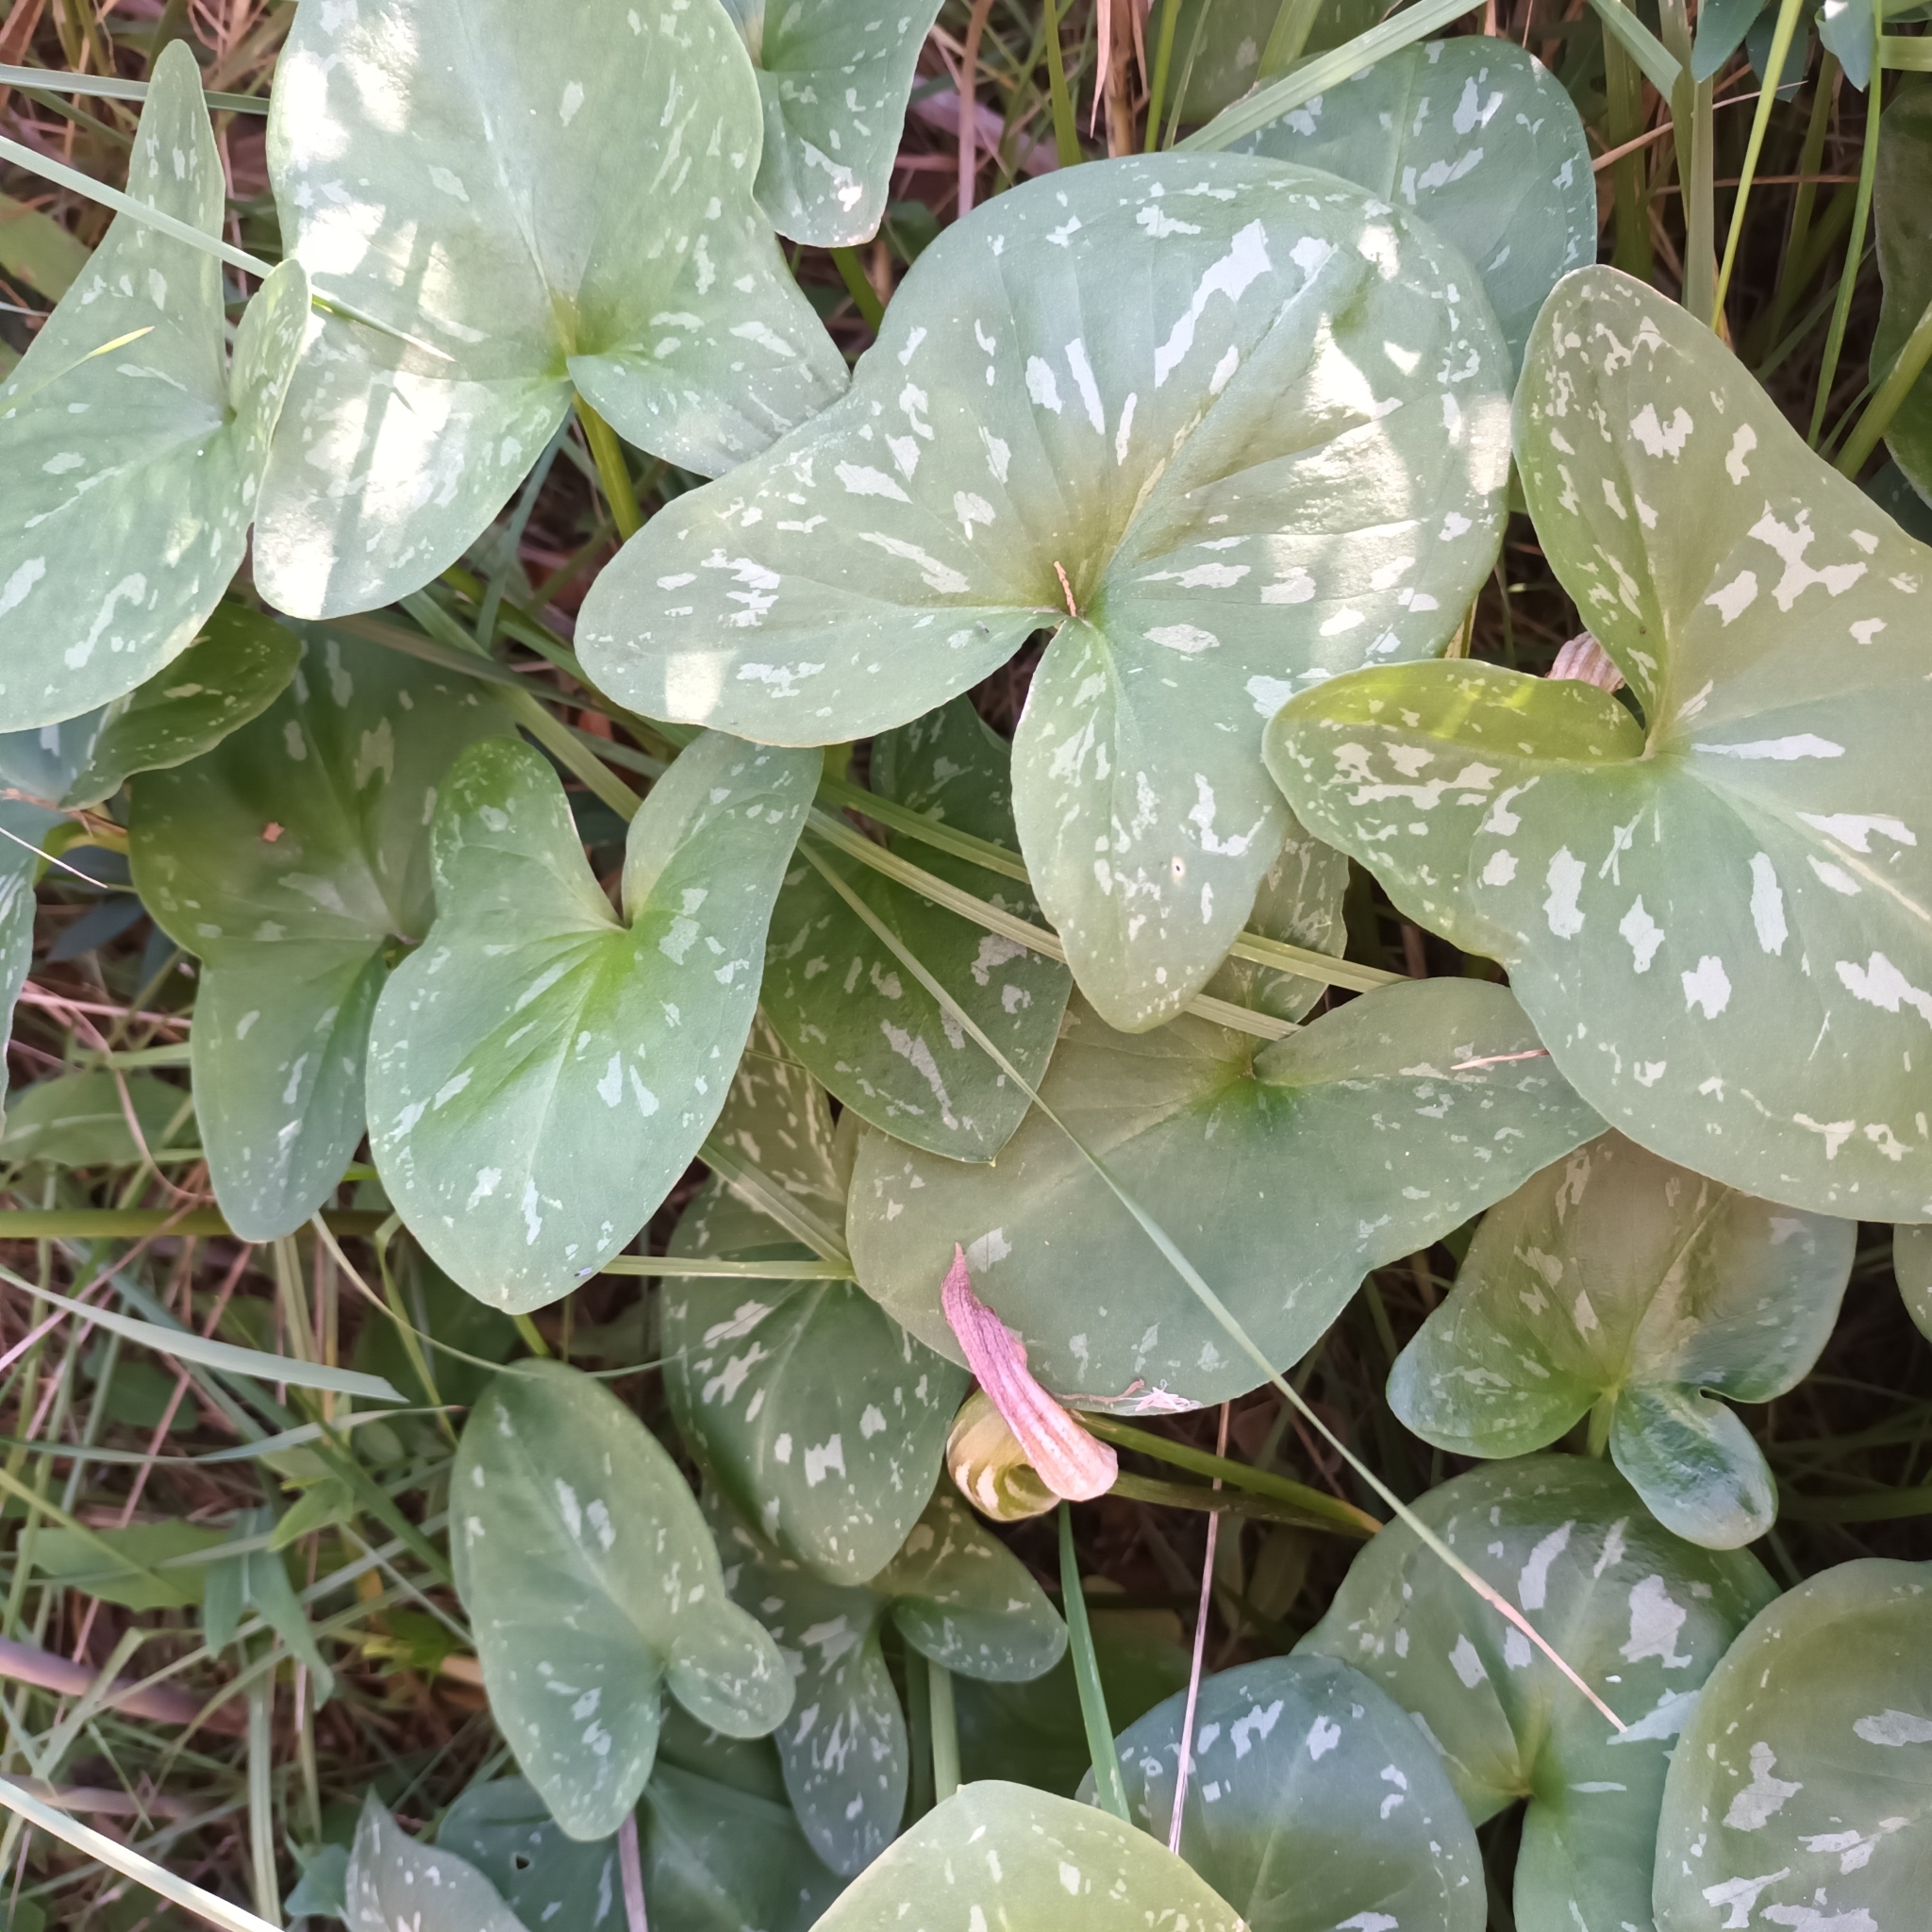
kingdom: Plantae
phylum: Tracheophyta
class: Liliopsida
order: Alismatales
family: Araceae
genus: Arisarum
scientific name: Arisarum vulgare
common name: Common arisarum
